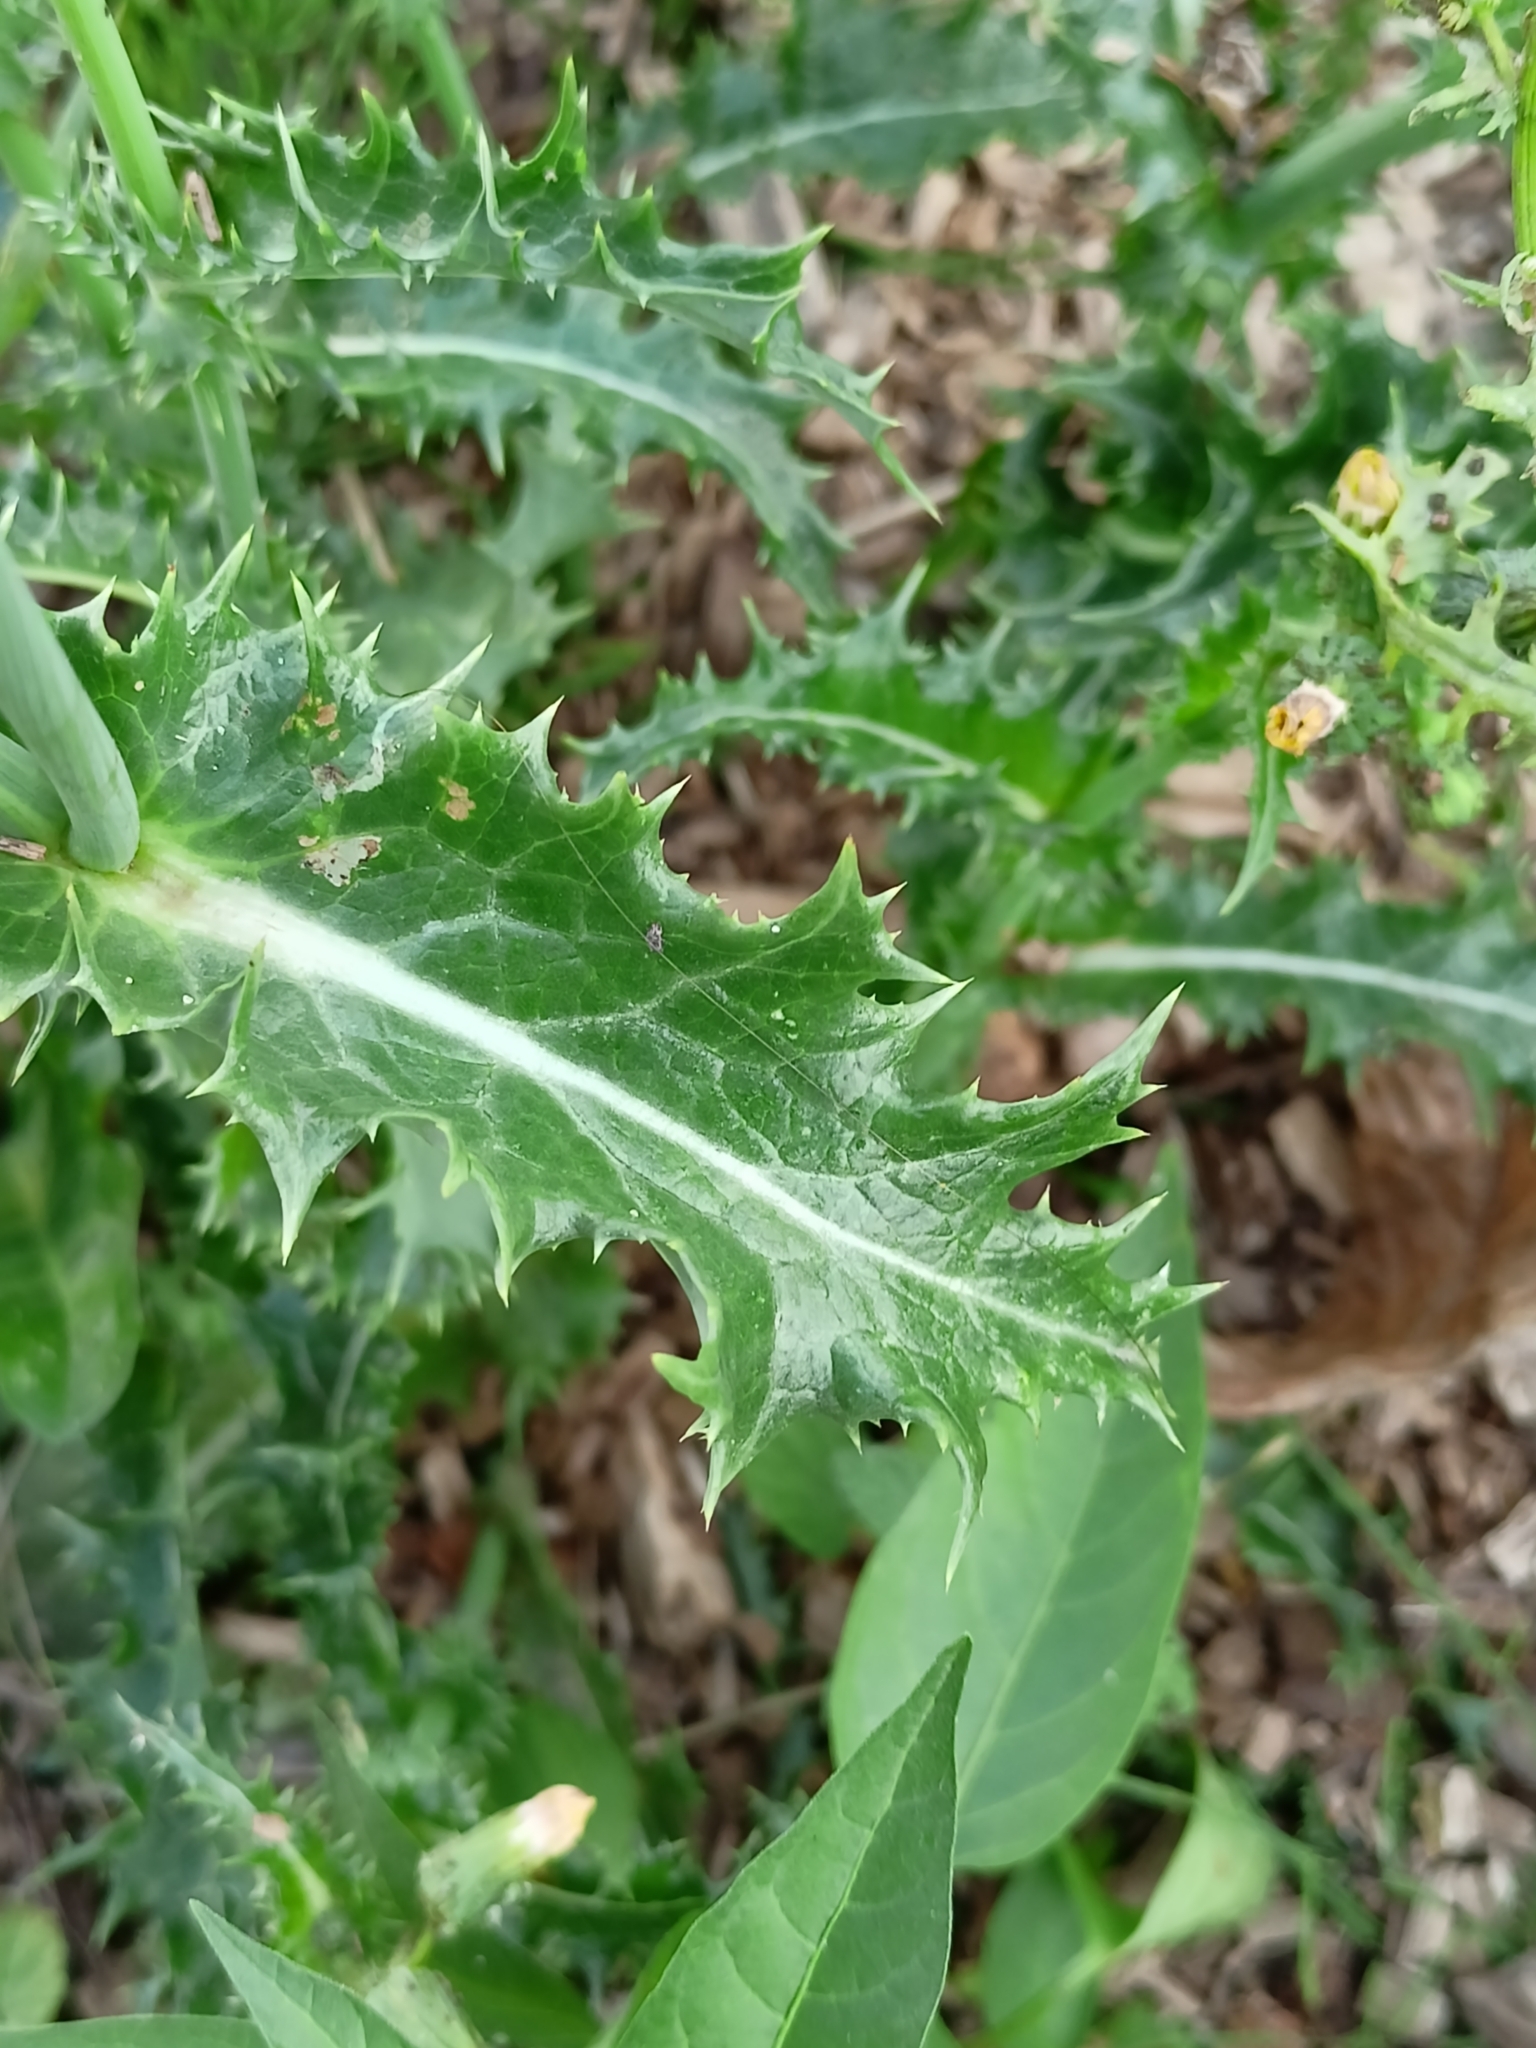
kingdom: Plantae
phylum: Tracheophyta
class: Magnoliopsida
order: Asterales
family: Asteraceae
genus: Sonchus
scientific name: Sonchus asper
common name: Prickly sow-thistle
